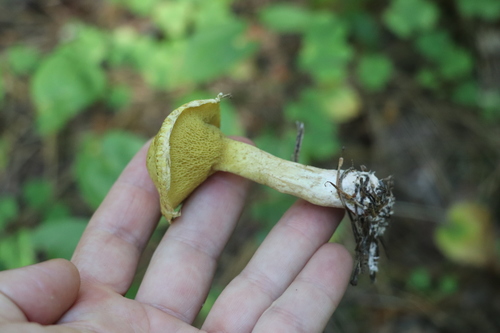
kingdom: Fungi
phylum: Basidiomycota
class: Agaricomycetes
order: Boletales
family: Suillaceae
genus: Suillus
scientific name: Suillus americanus
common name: Chicken fat mushroom
